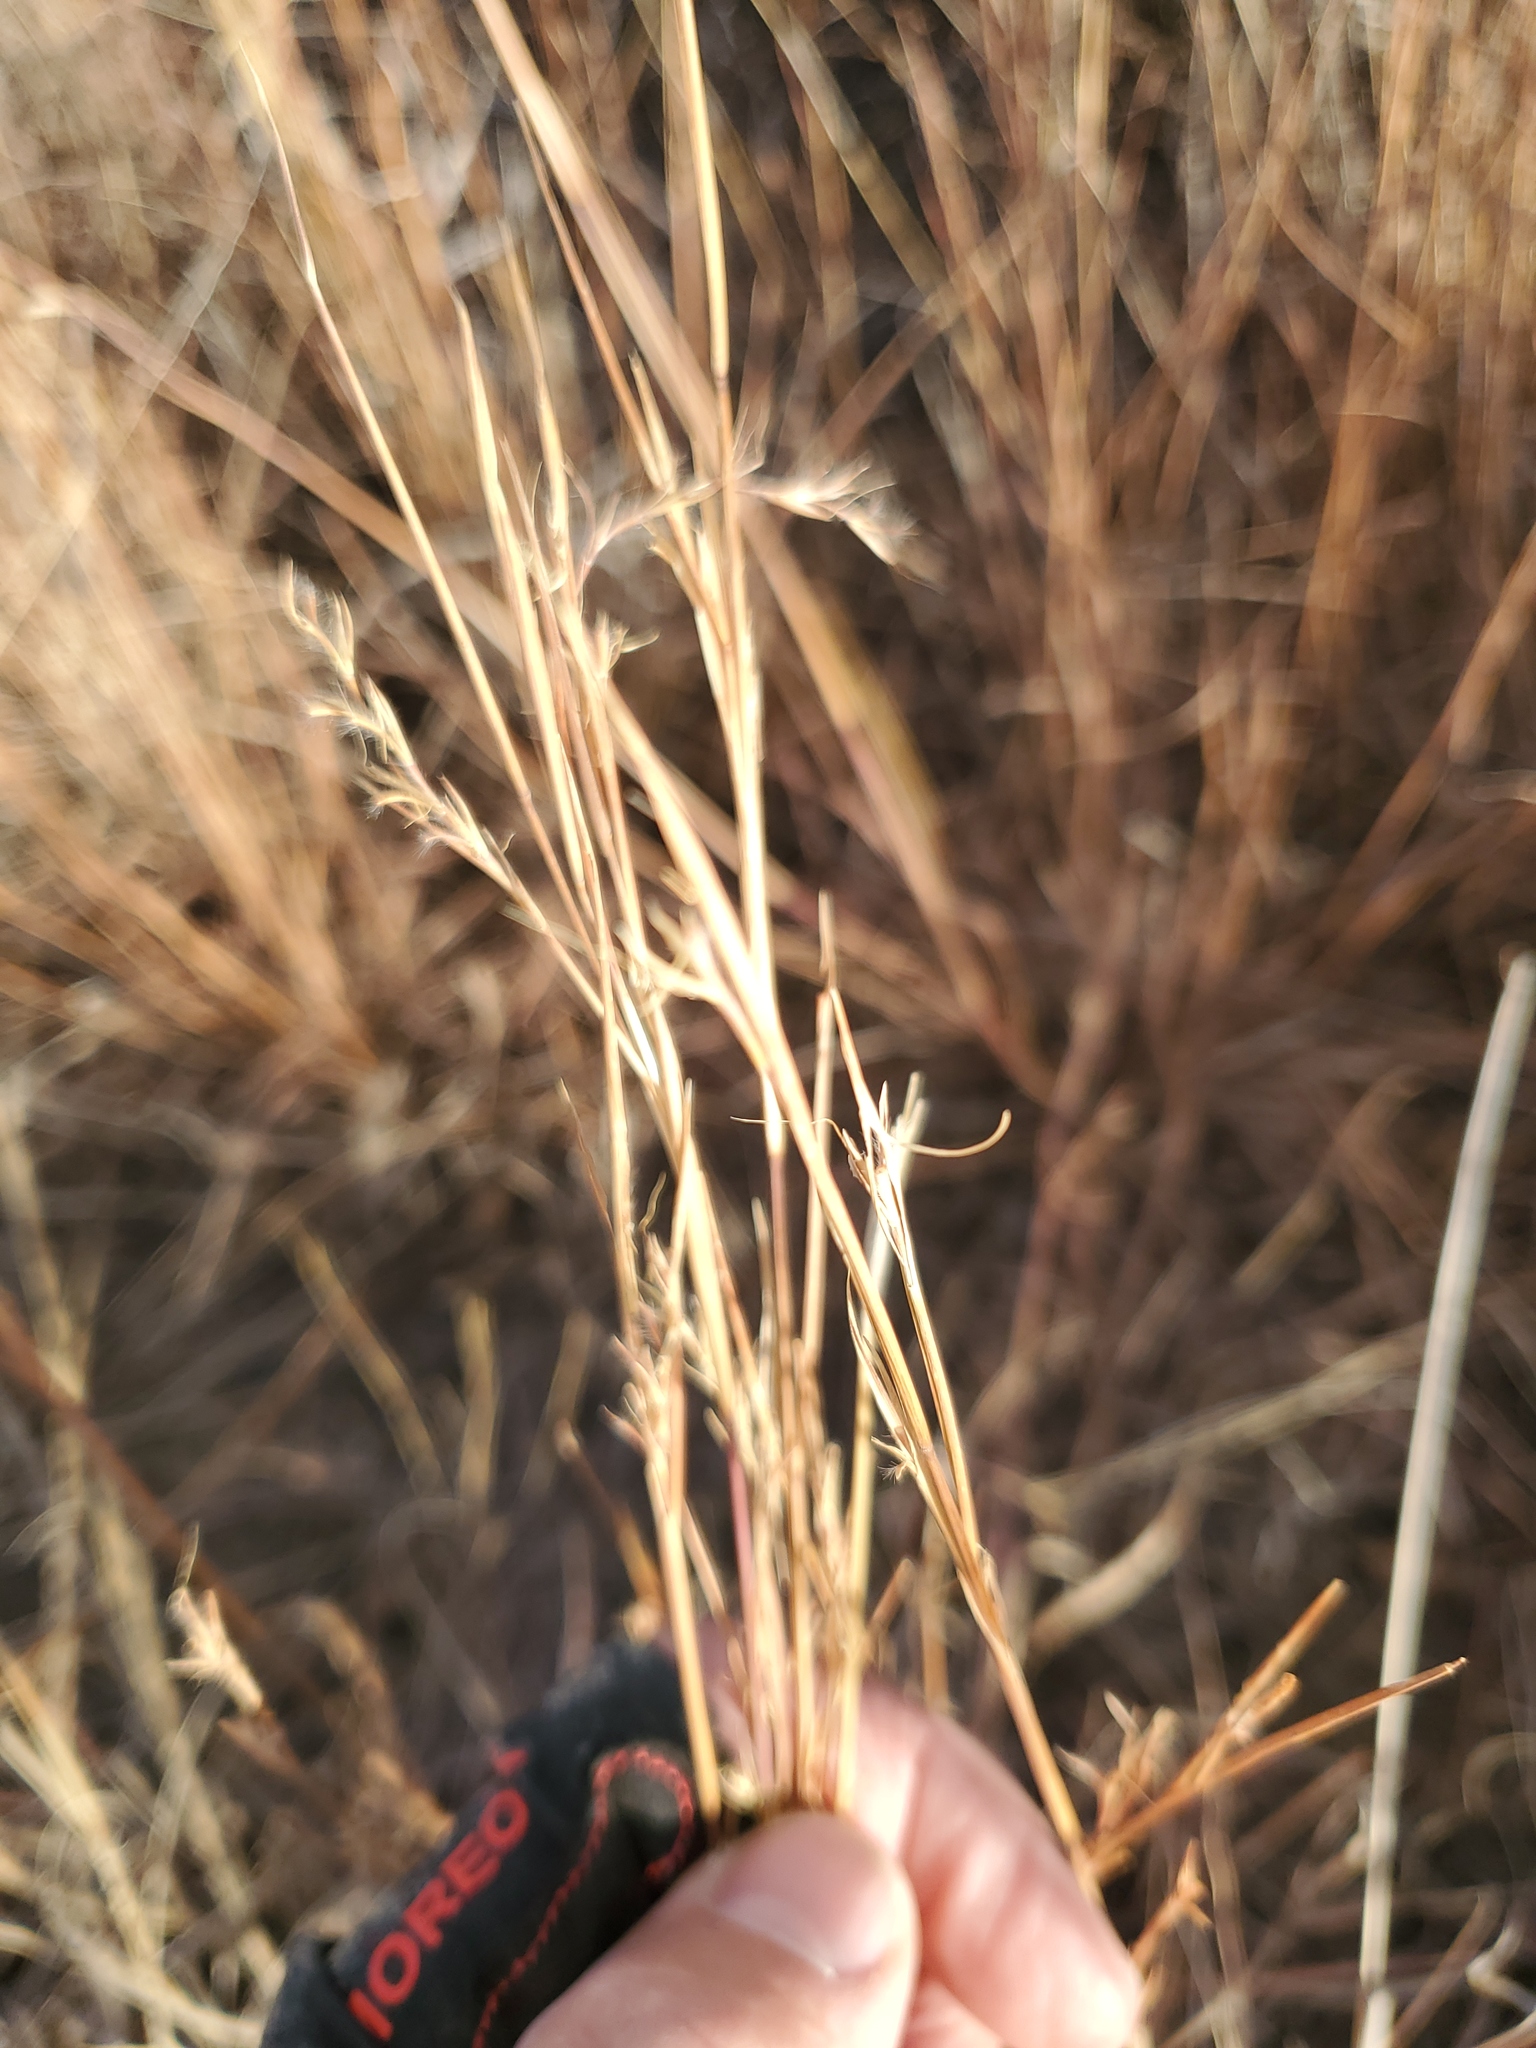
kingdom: Plantae
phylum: Tracheophyta
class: Liliopsida
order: Poales
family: Poaceae
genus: Schizachyrium
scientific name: Schizachyrium scoparium
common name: Little bluestem
